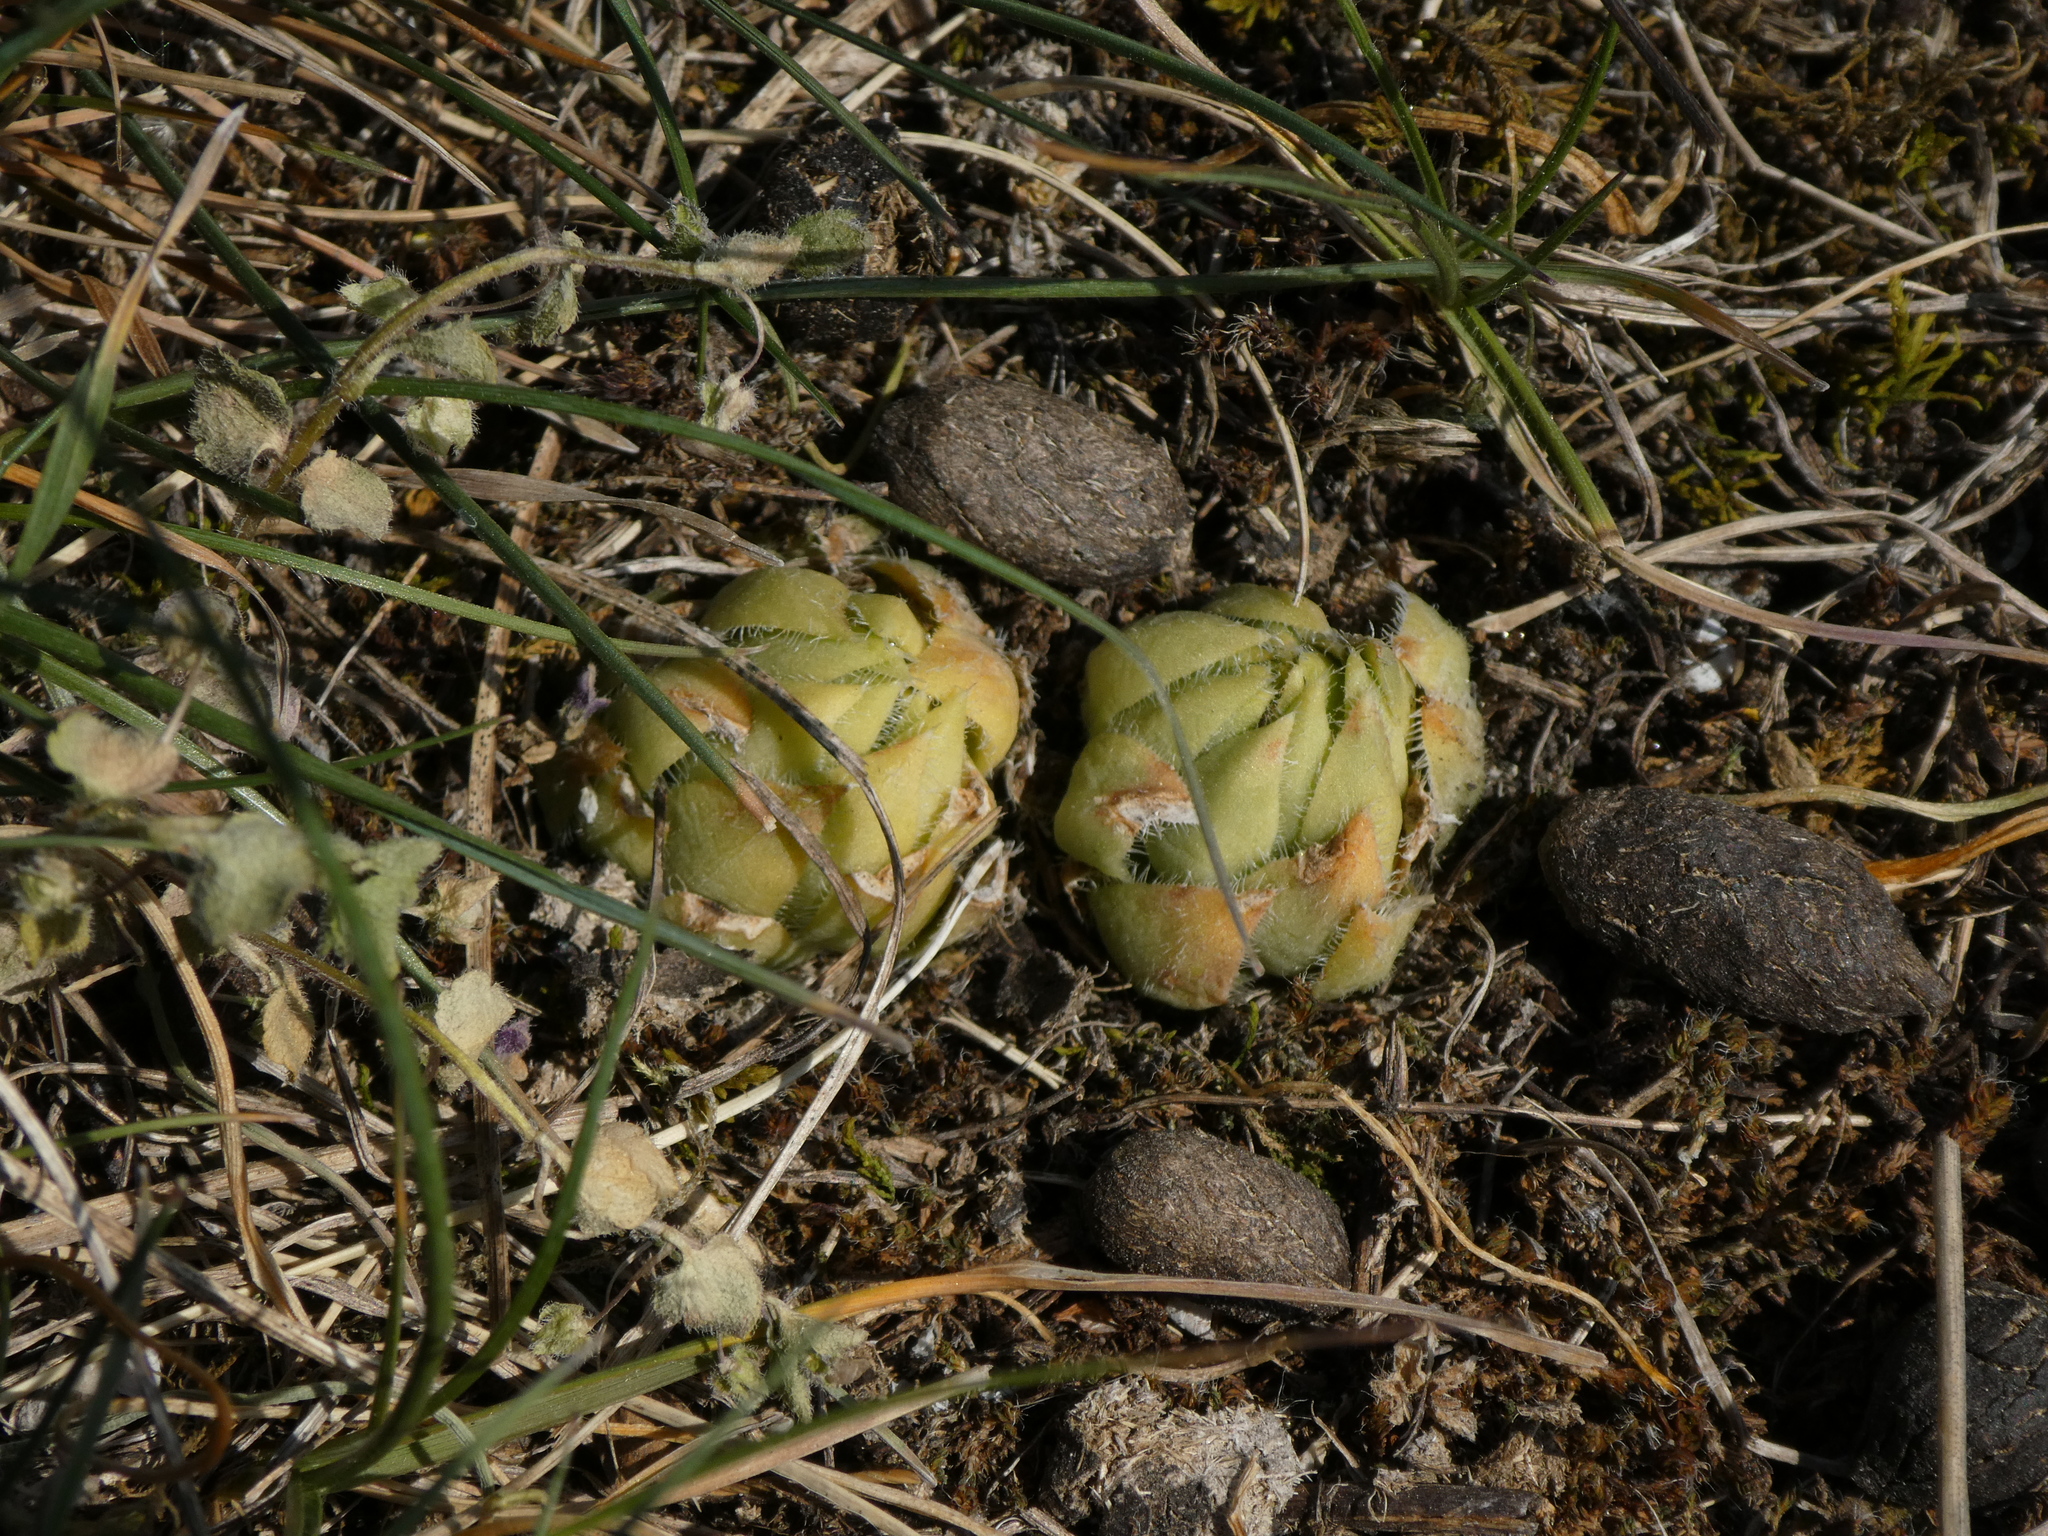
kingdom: Plantae
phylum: Tracheophyta
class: Magnoliopsida
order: Saxifragales
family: Crassulaceae
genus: Sempervivum
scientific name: Sempervivum globiferum
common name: Rolling hen-and-chicks
